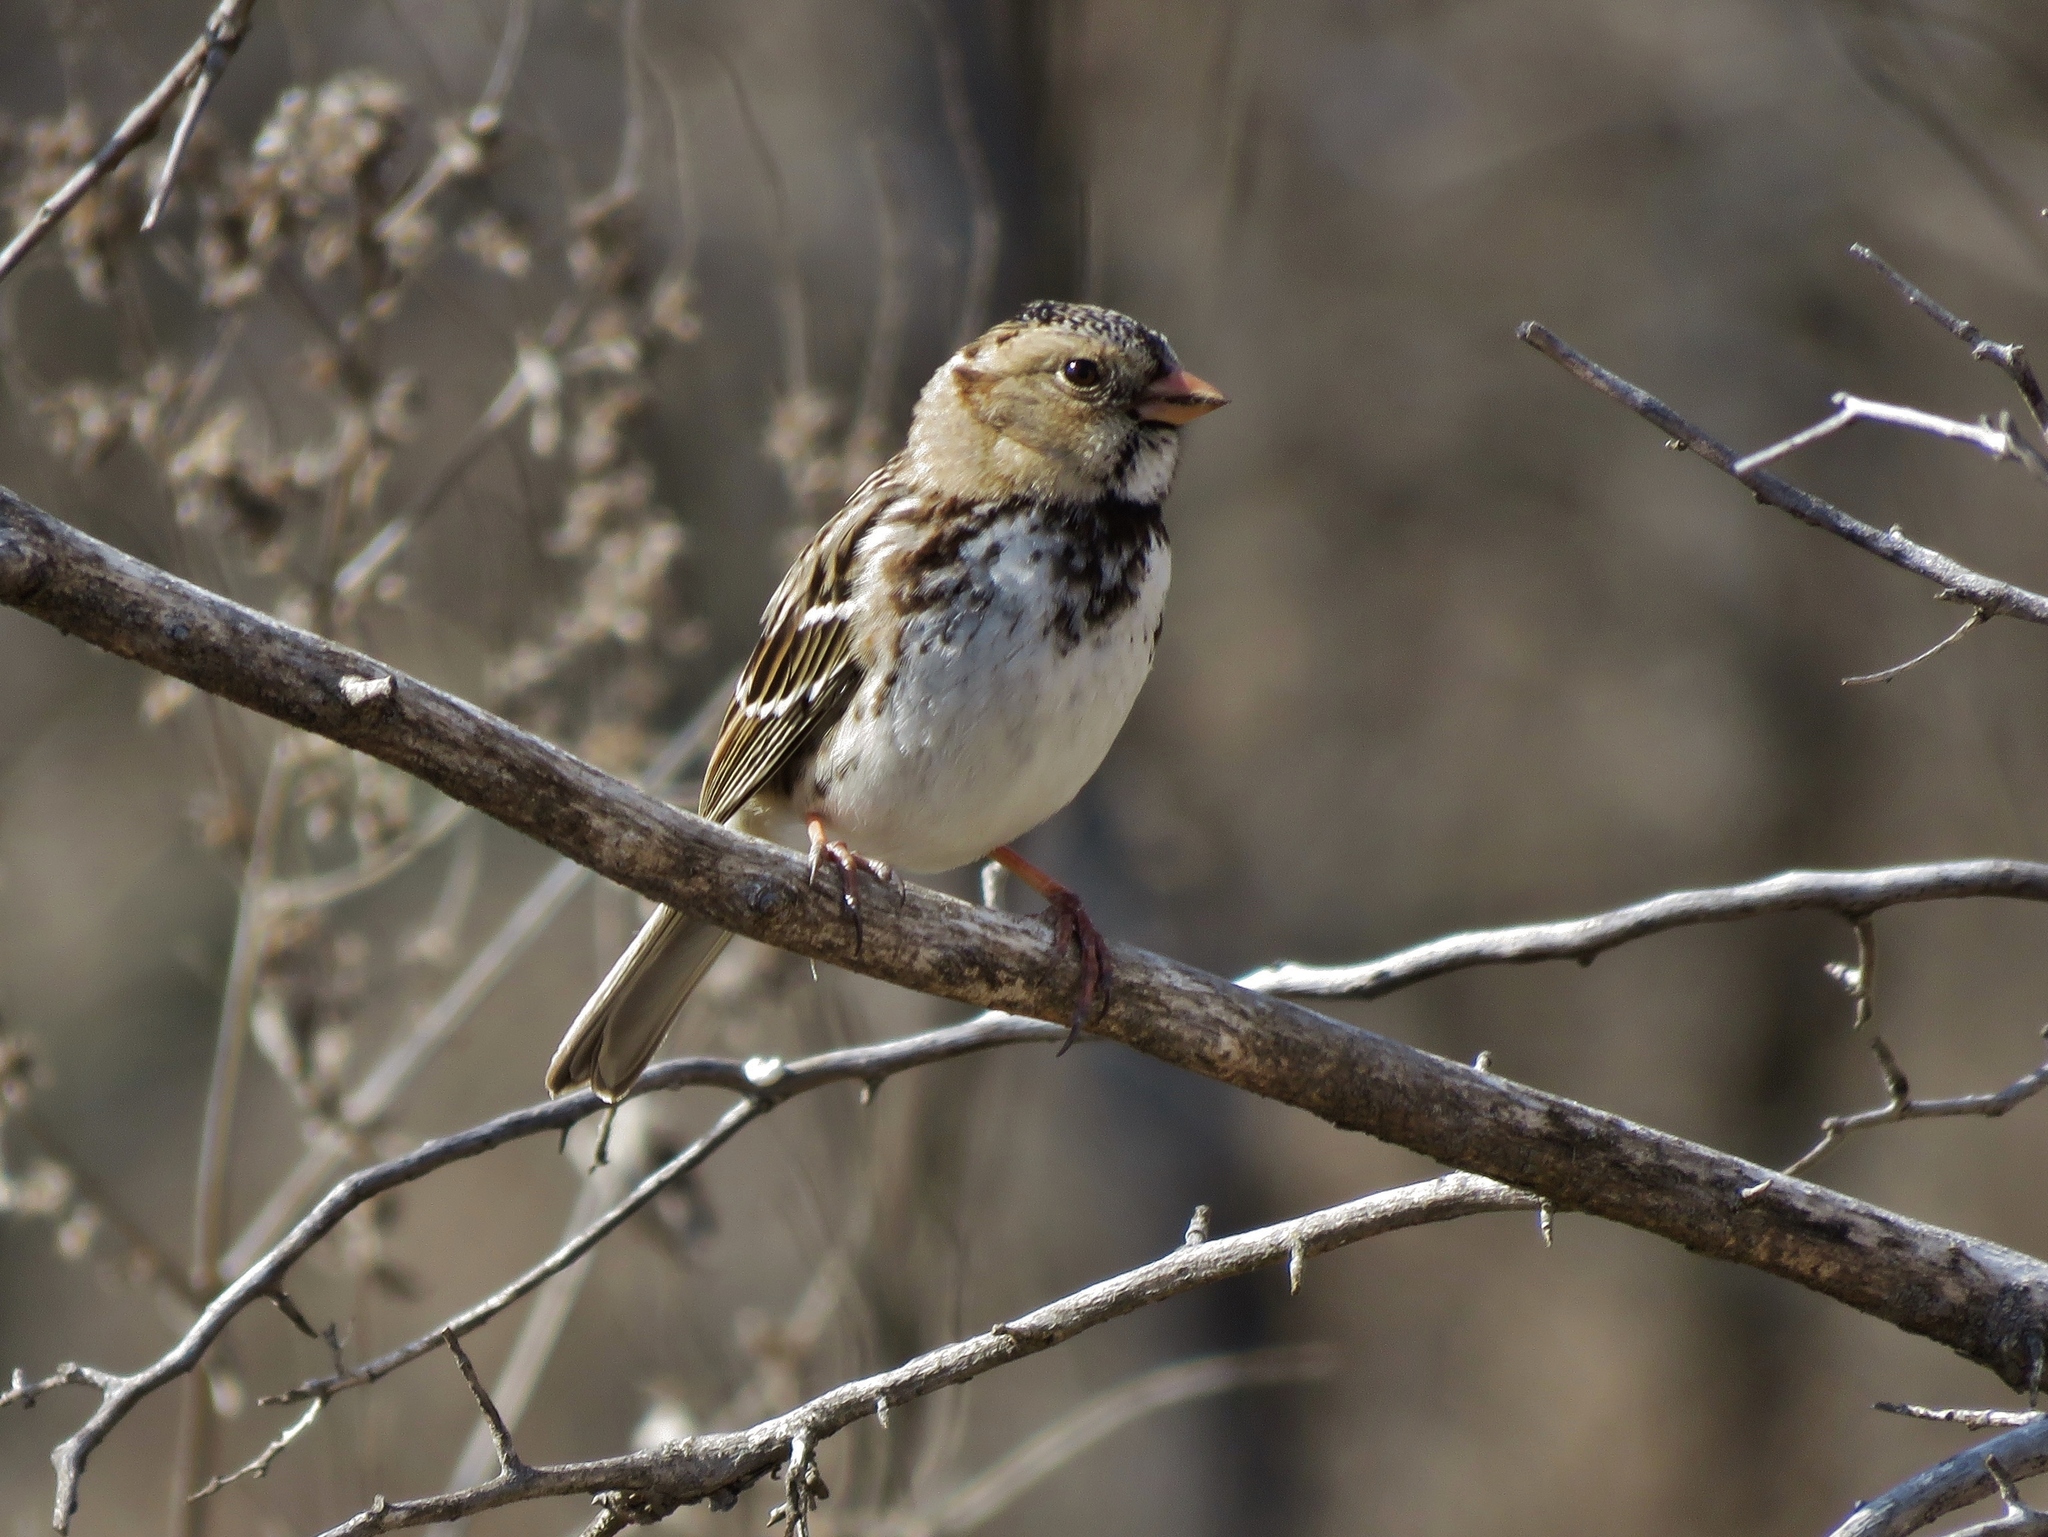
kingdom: Animalia
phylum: Chordata
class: Aves
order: Passeriformes
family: Passerellidae
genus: Zonotrichia
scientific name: Zonotrichia querula
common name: Harris's sparrow
